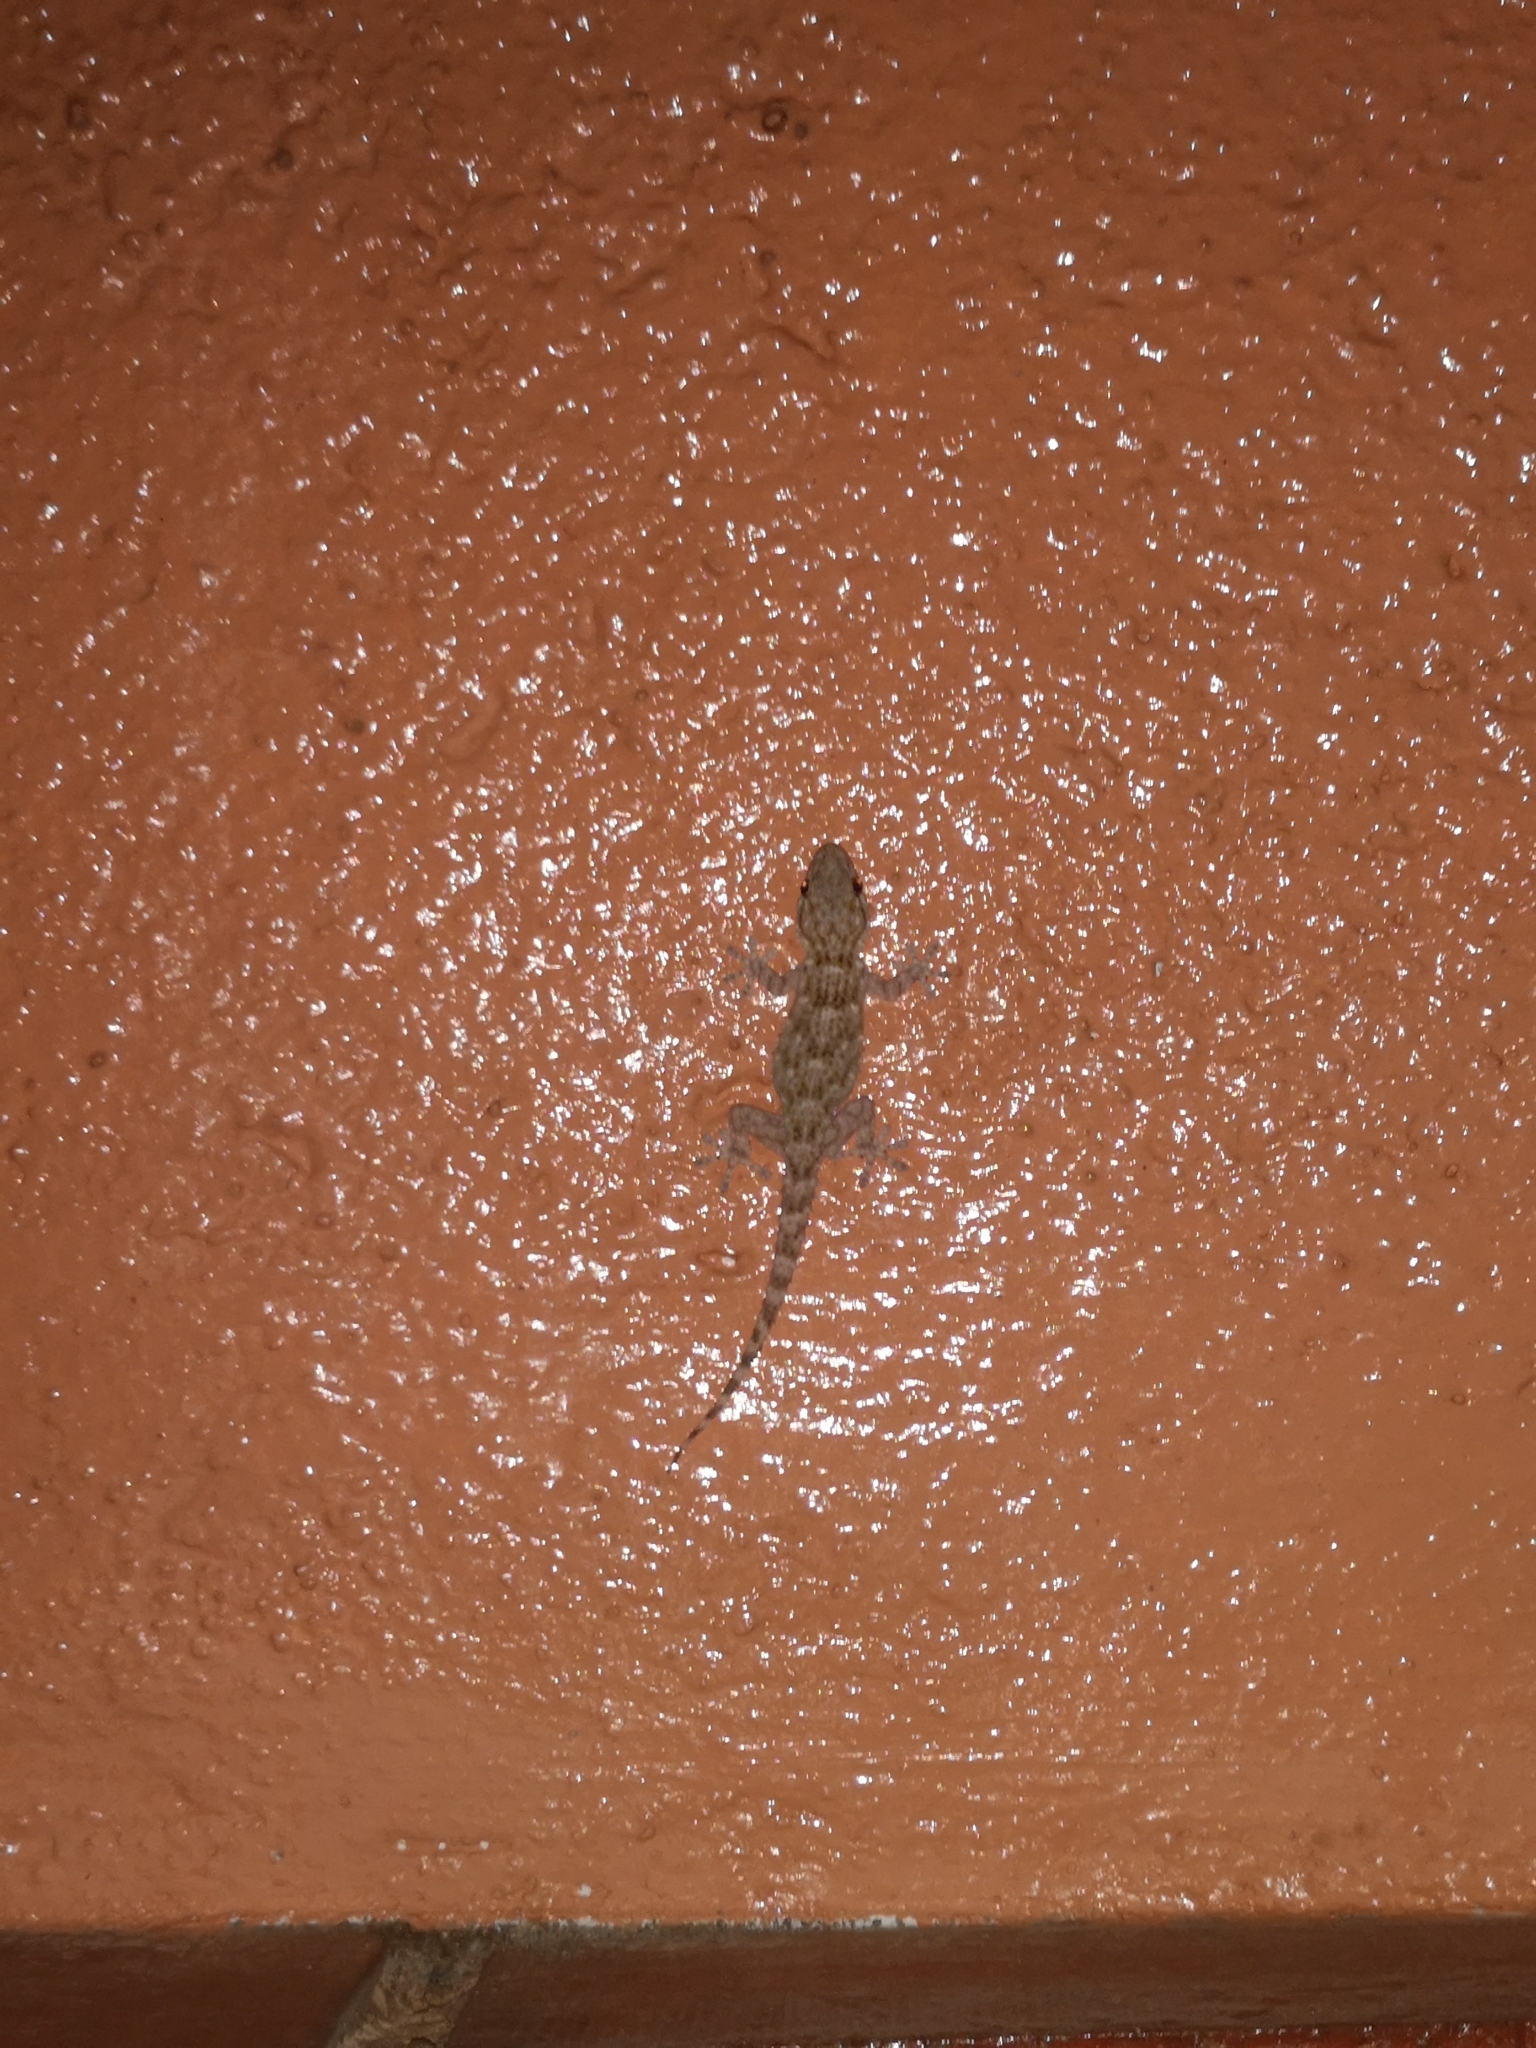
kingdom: Animalia
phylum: Chordata
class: Squamata
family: Phyllodactylidae
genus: Tarentola
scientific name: Tarentola mauritanica
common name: Moorish gecko
